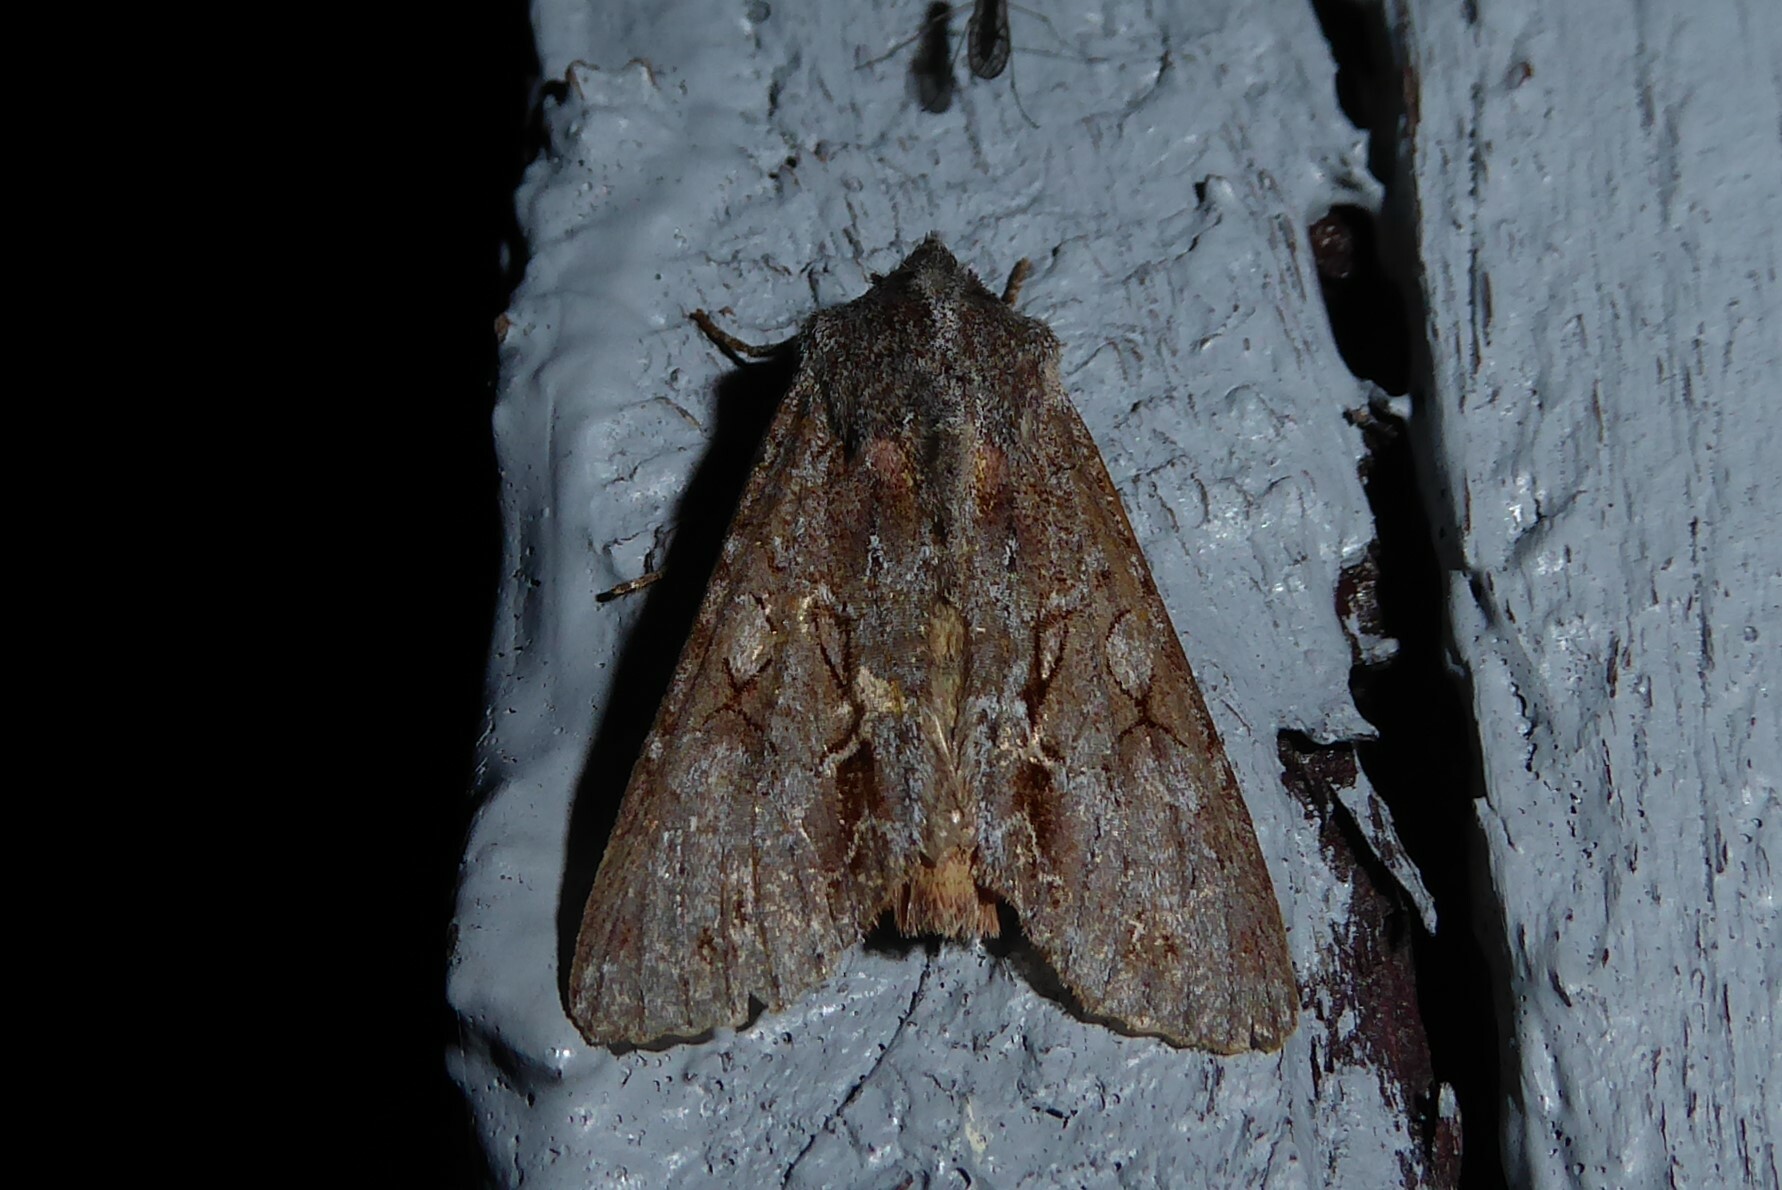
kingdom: Animalia
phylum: Arthropoda
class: Insecta
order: Lepidoptera
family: Noctuidae
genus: Ichneutica
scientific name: Ichneutica
